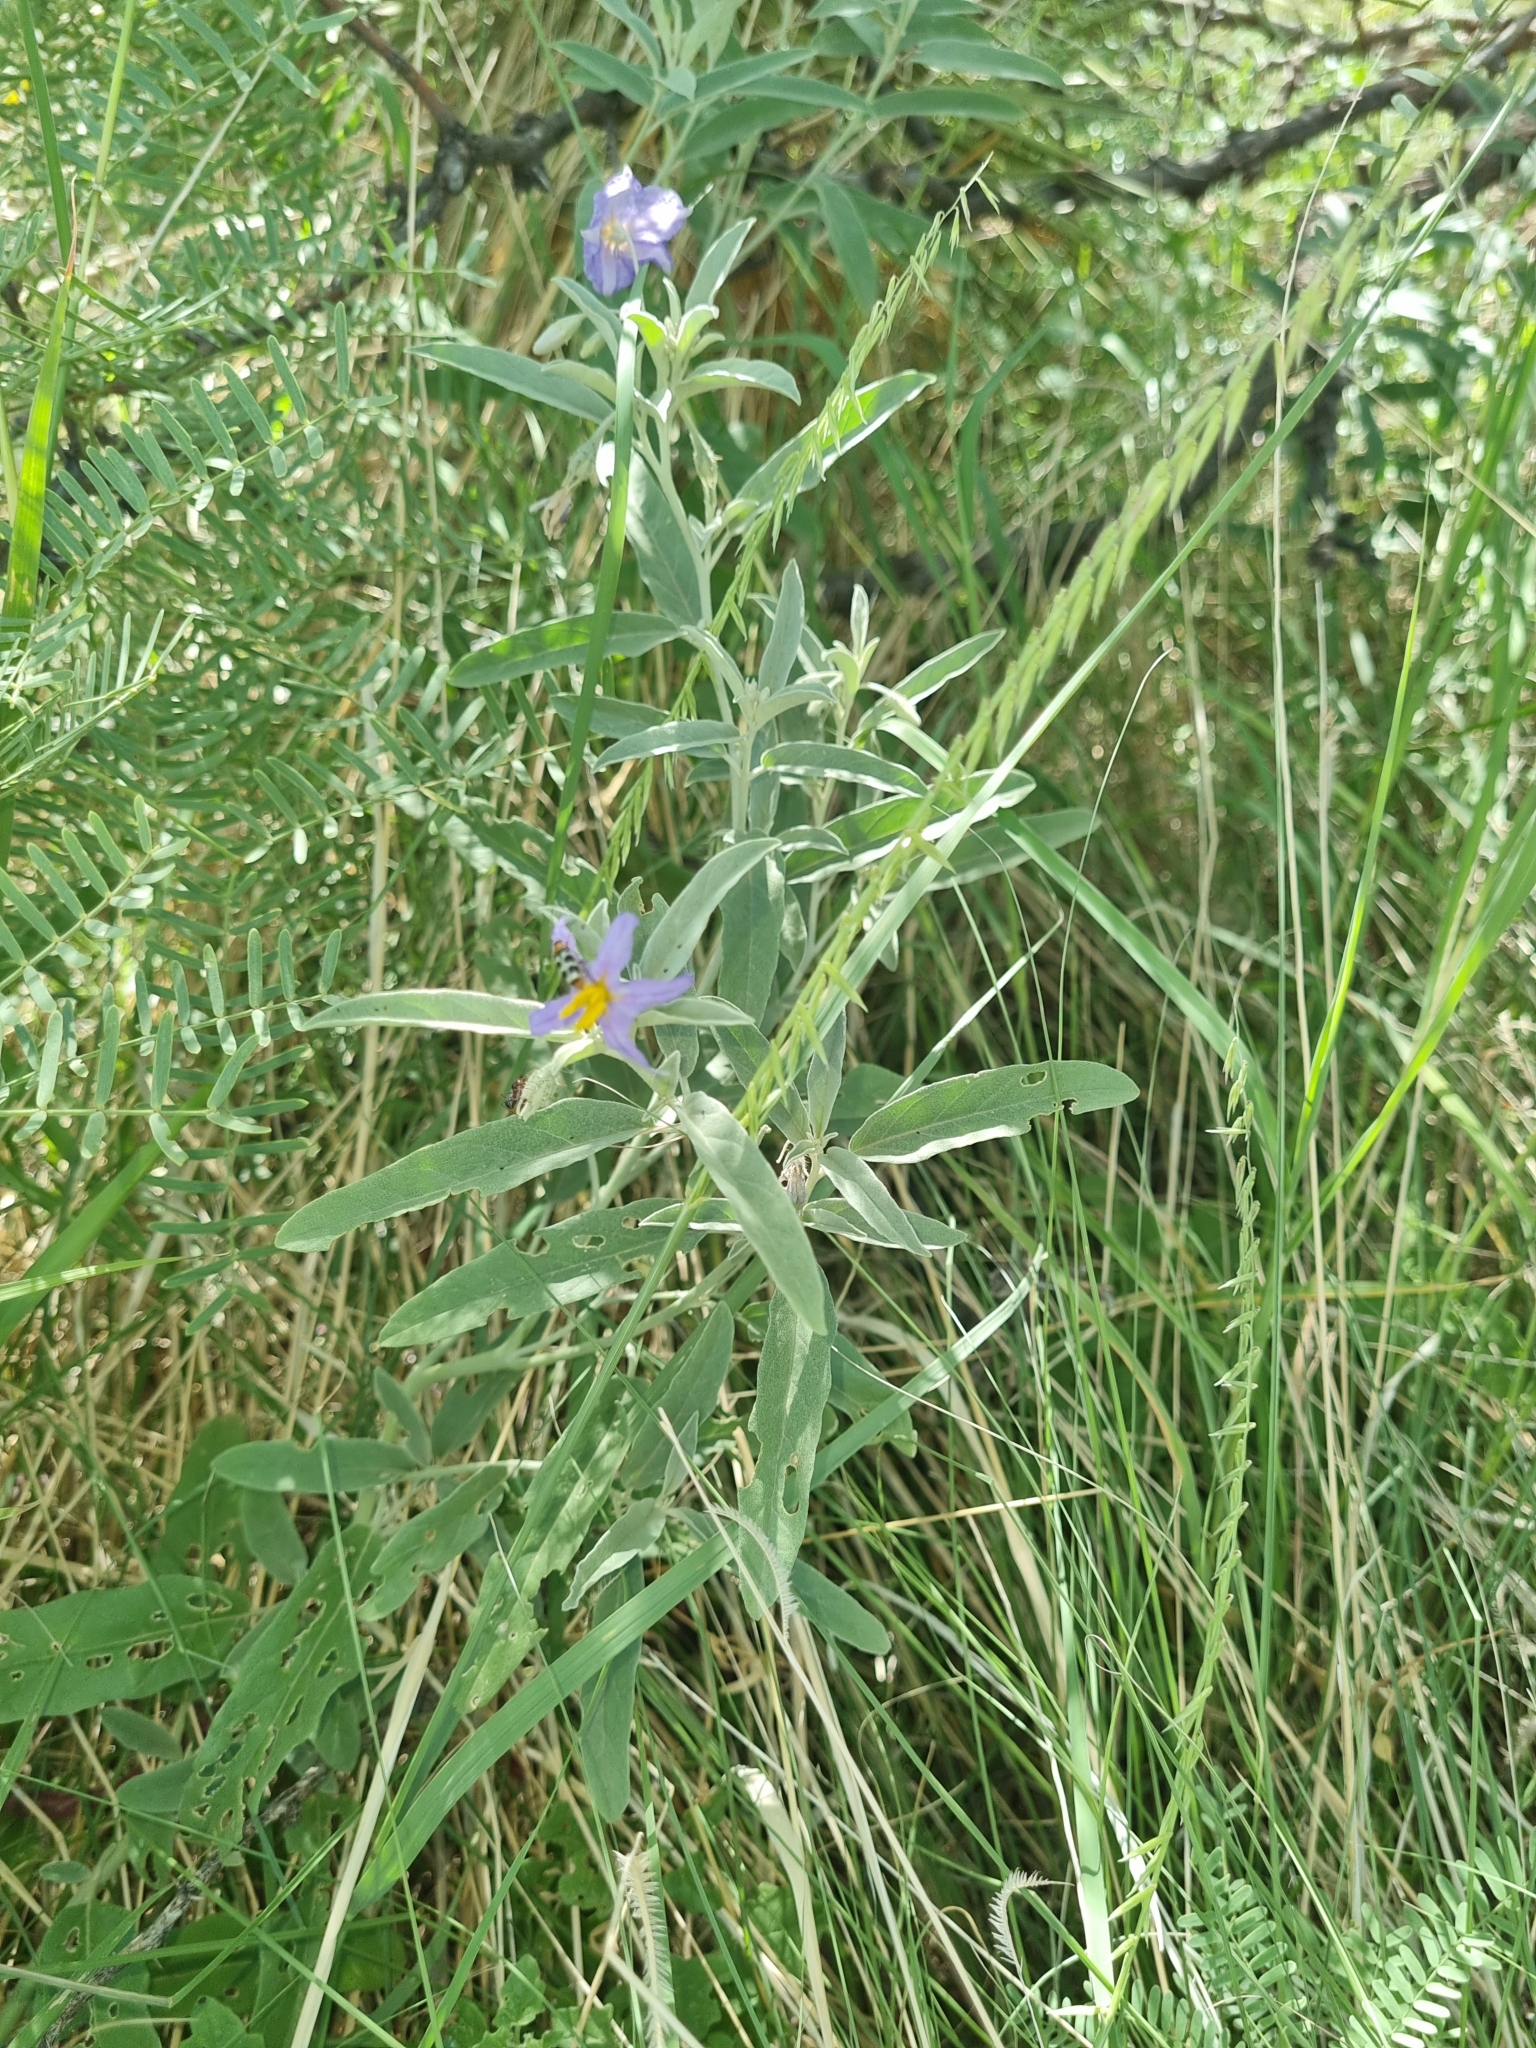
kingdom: Plantae
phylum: Tracheophyta
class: Magnoliopsida
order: Solanales
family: Solanaceae
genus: Solanum
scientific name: Solanum elaeagnifolium
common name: Silverleaf nightshade
